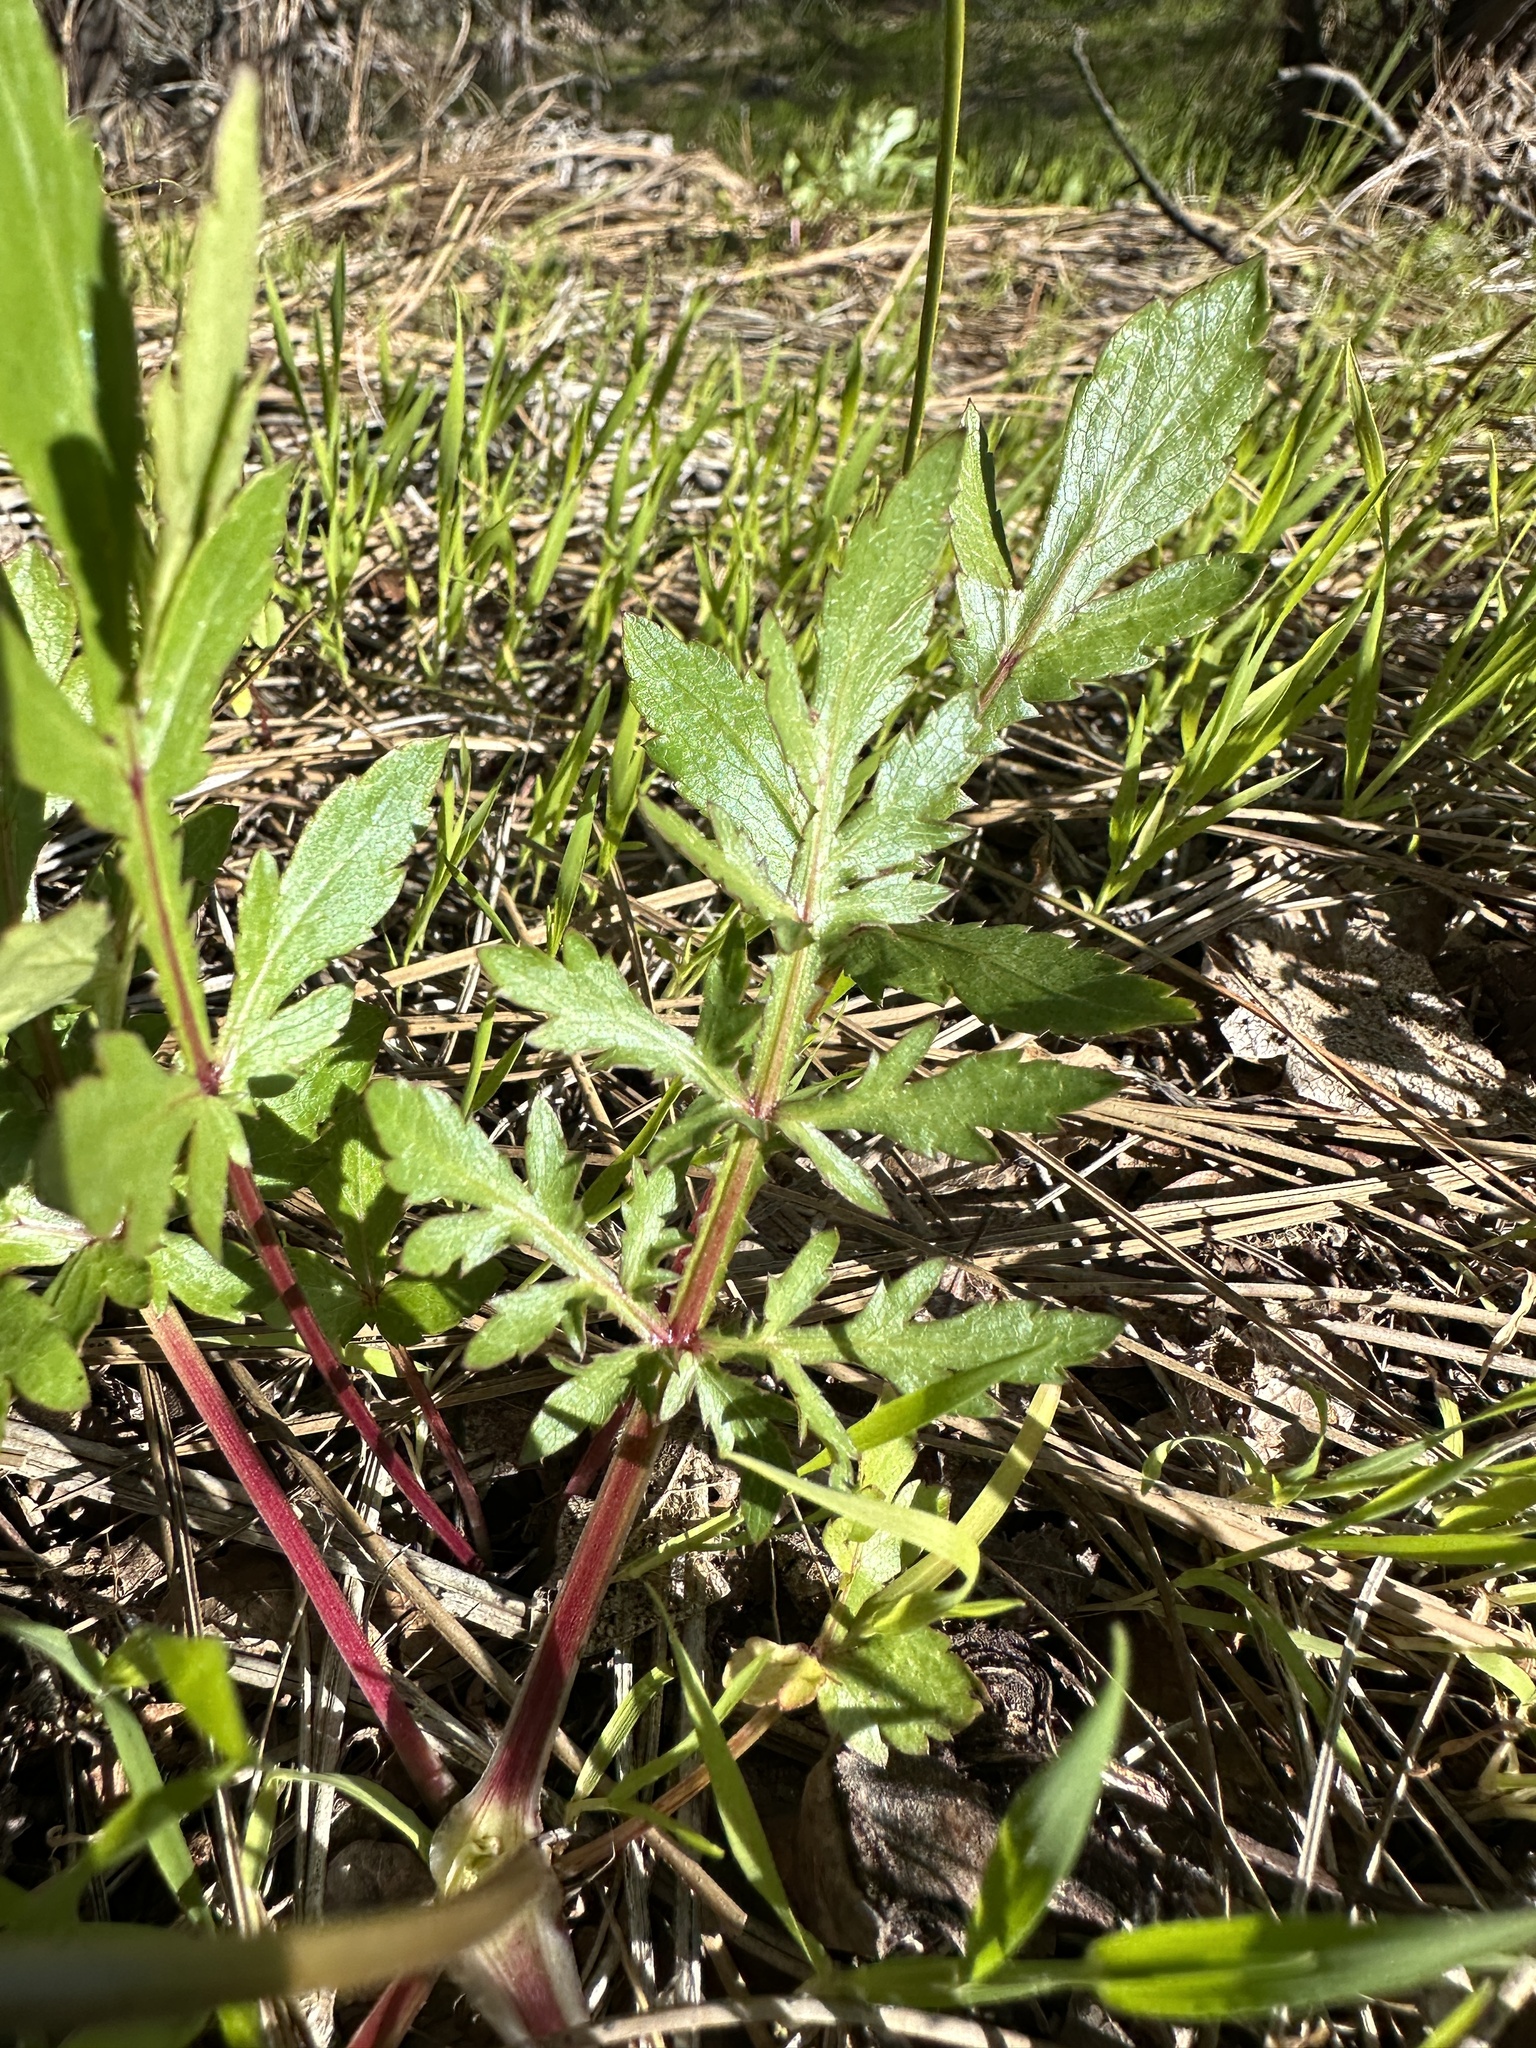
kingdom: Plantae
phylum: Tracheophyta
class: Magnoliopsida
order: Apiales
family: Apiaceae
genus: Sanicula
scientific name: Sanicula bipinnatifida
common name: Shoe-buttons
